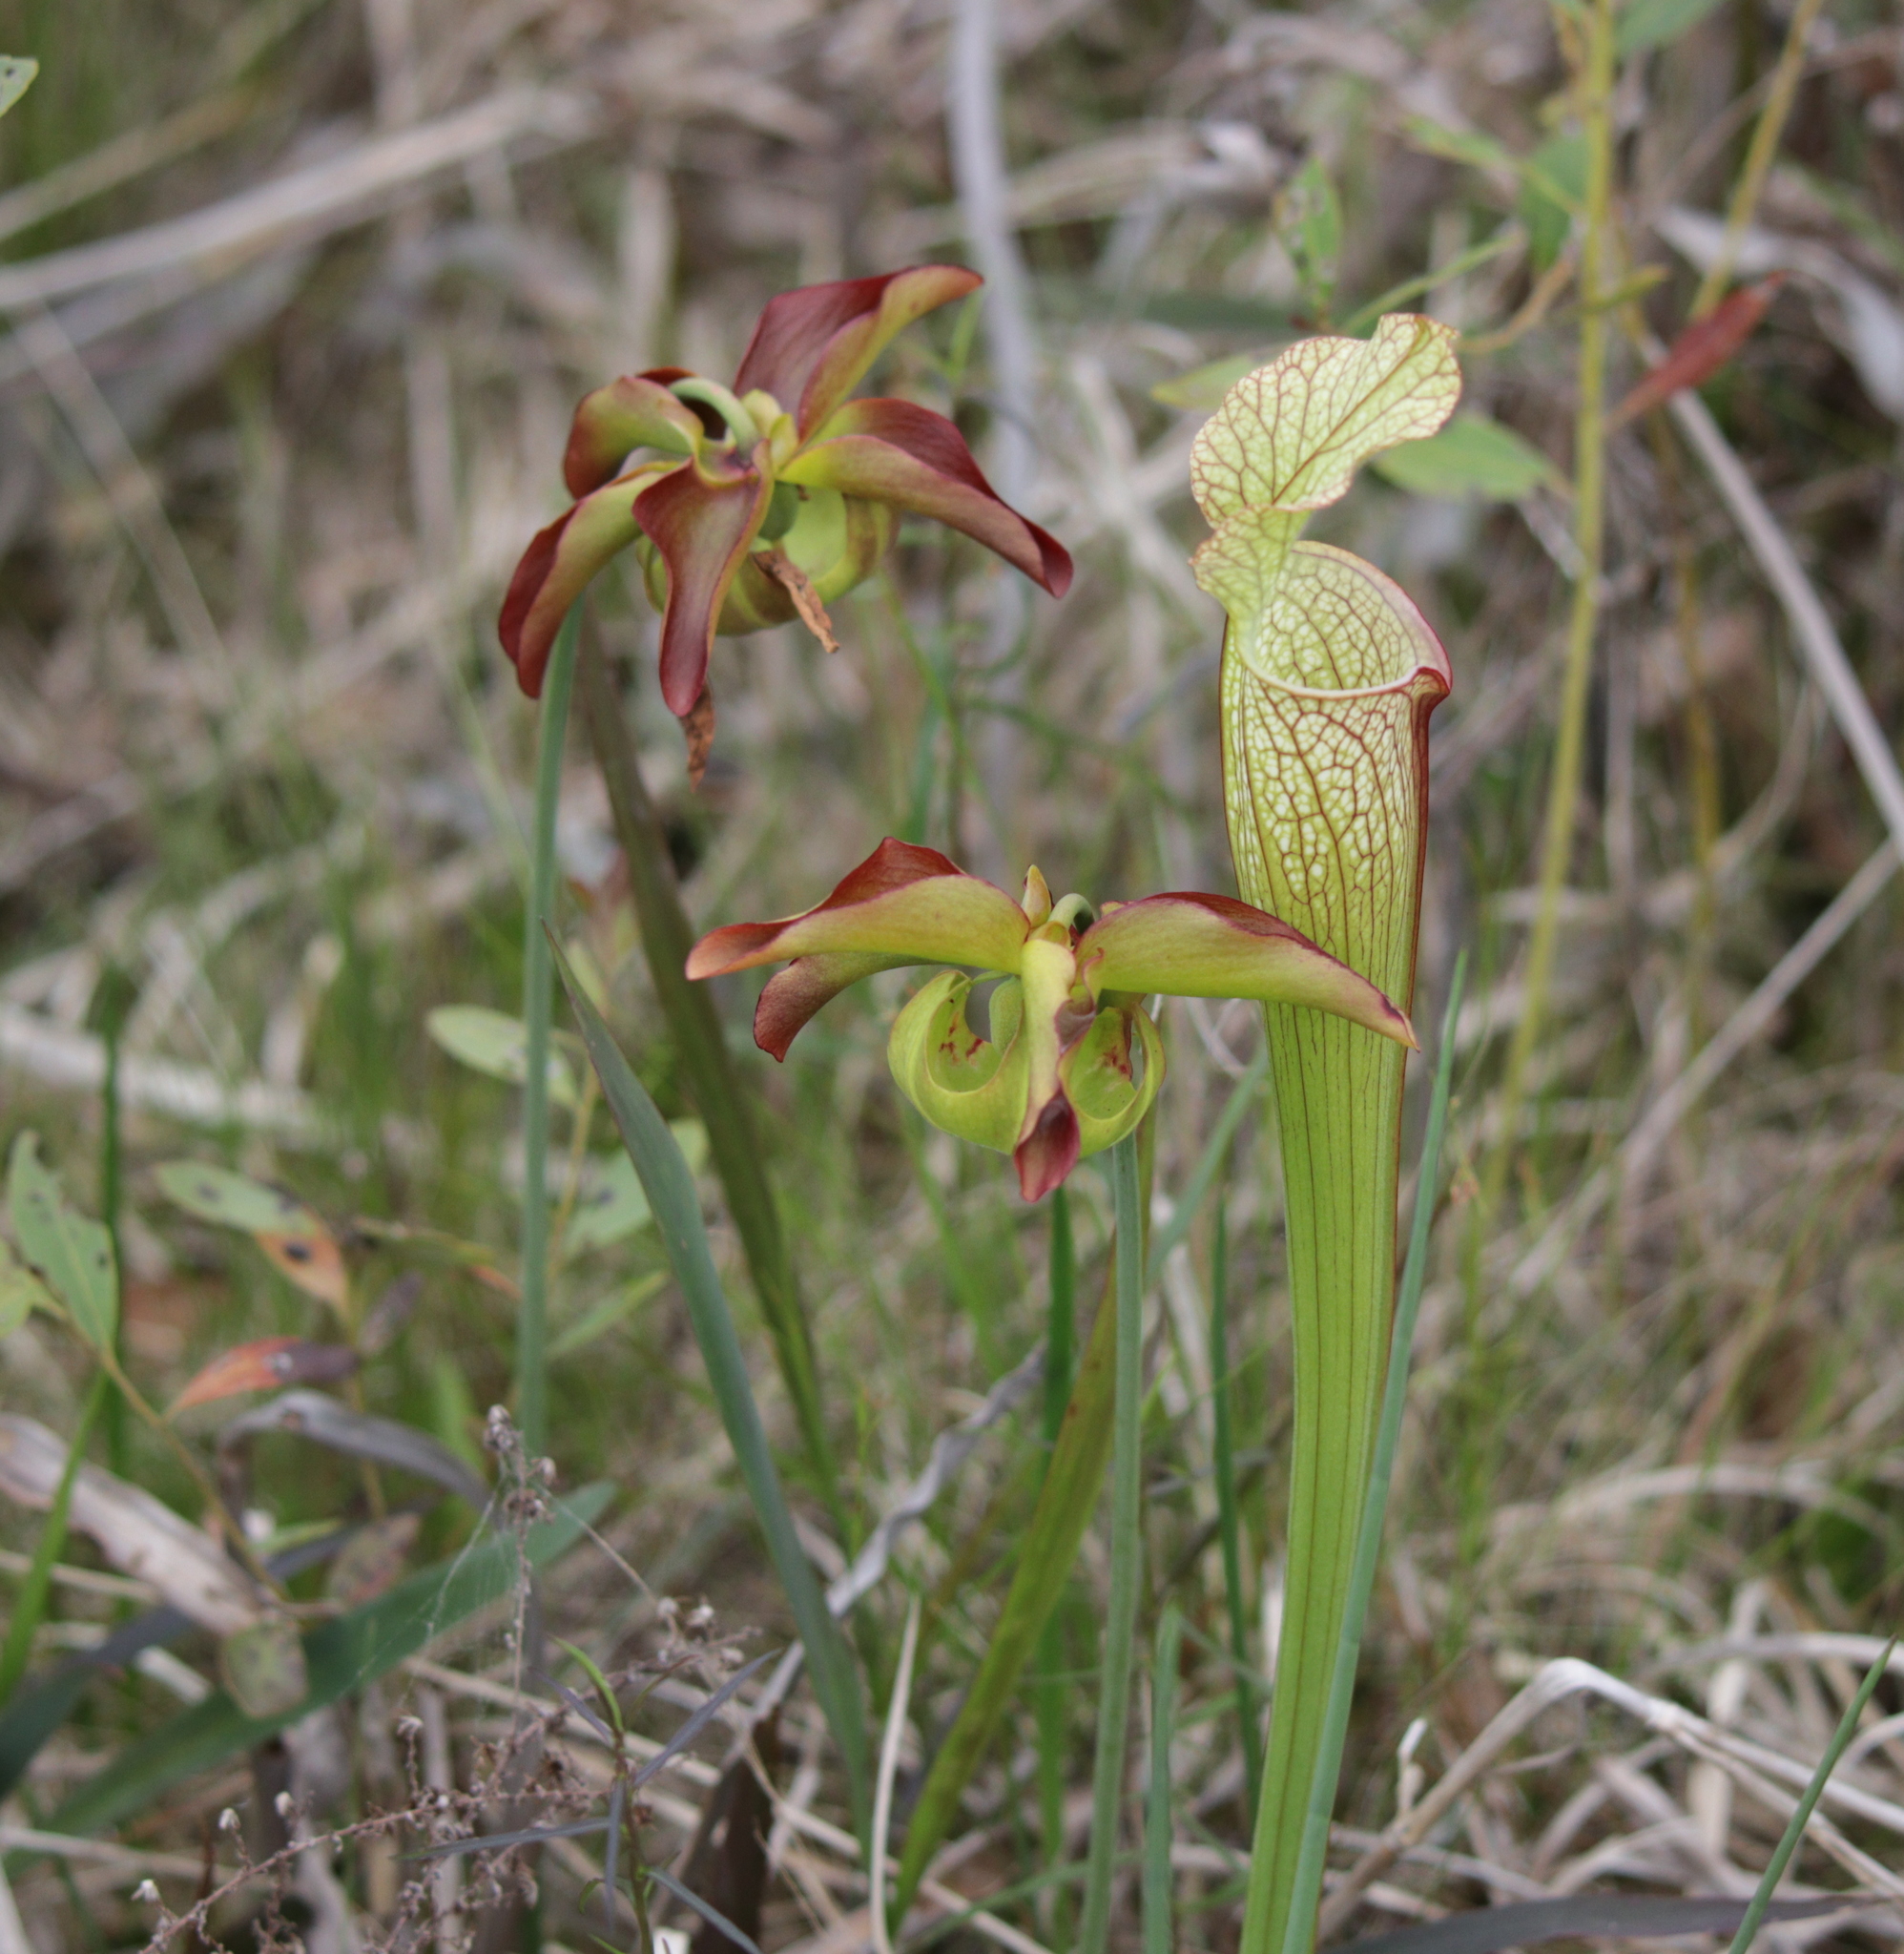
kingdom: Plantae
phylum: Tracheophyta
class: Magnoliopsida
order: Ericales
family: Sarraceniaceae
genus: Sarracenia
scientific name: Sarracenia leucophylla
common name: Purple trumpetleaf
